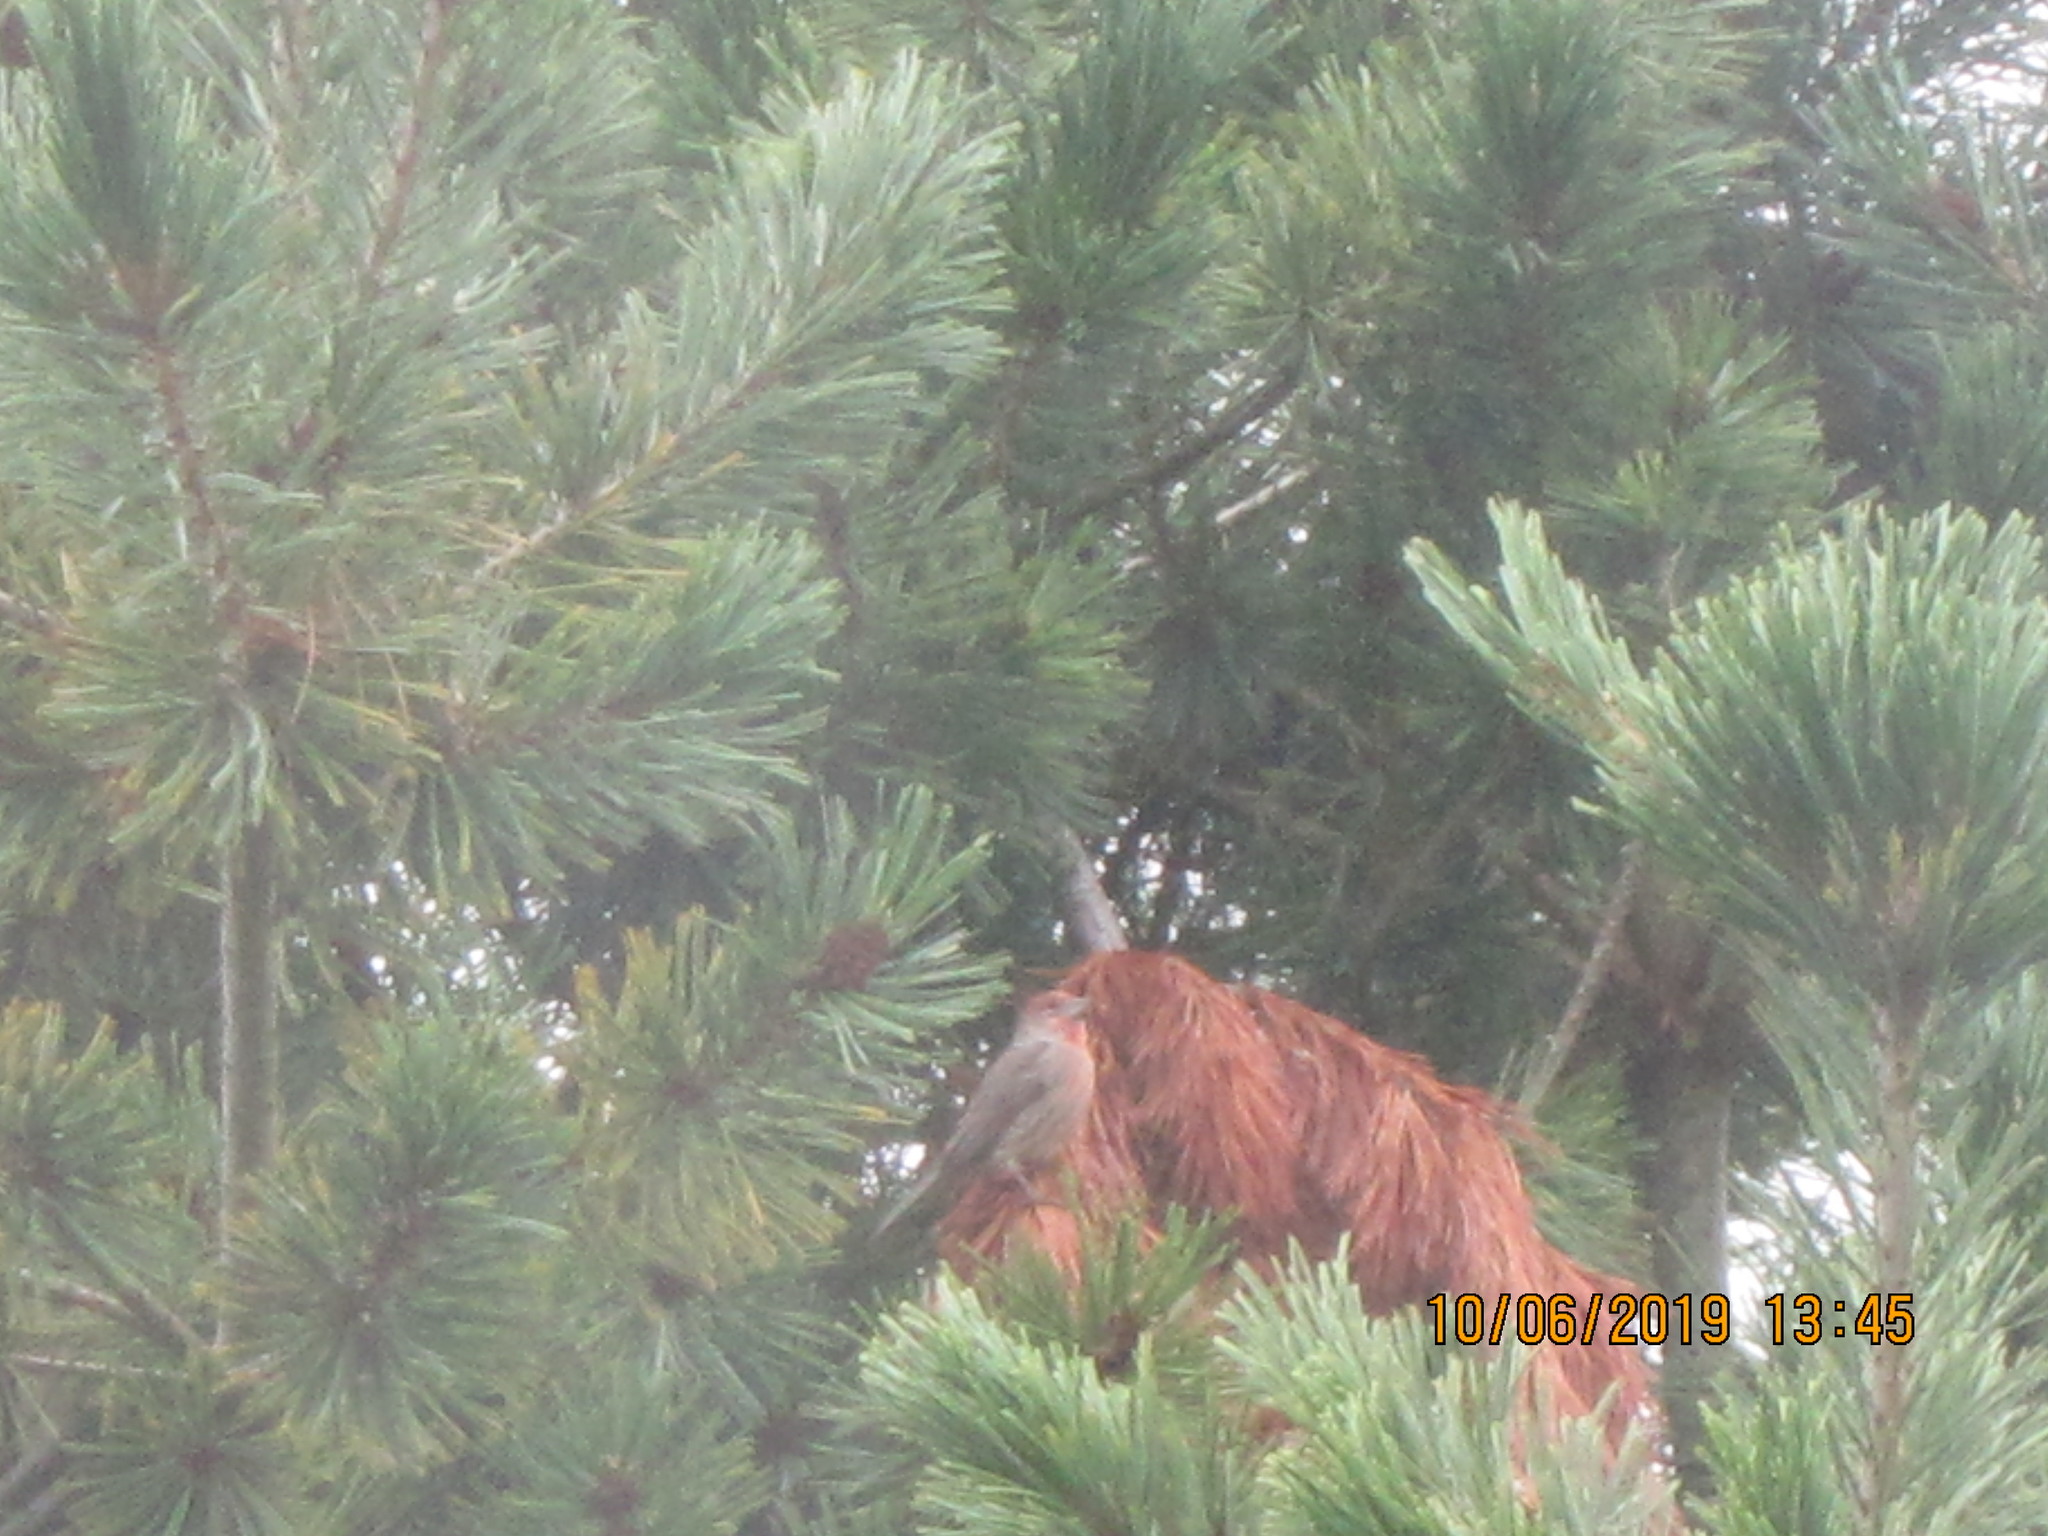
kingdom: Animalia
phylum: Chordata
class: Aves
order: Passeriformes
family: Fringillidae
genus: Haemorhous
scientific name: Haemorhous mexicanus
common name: House finch
